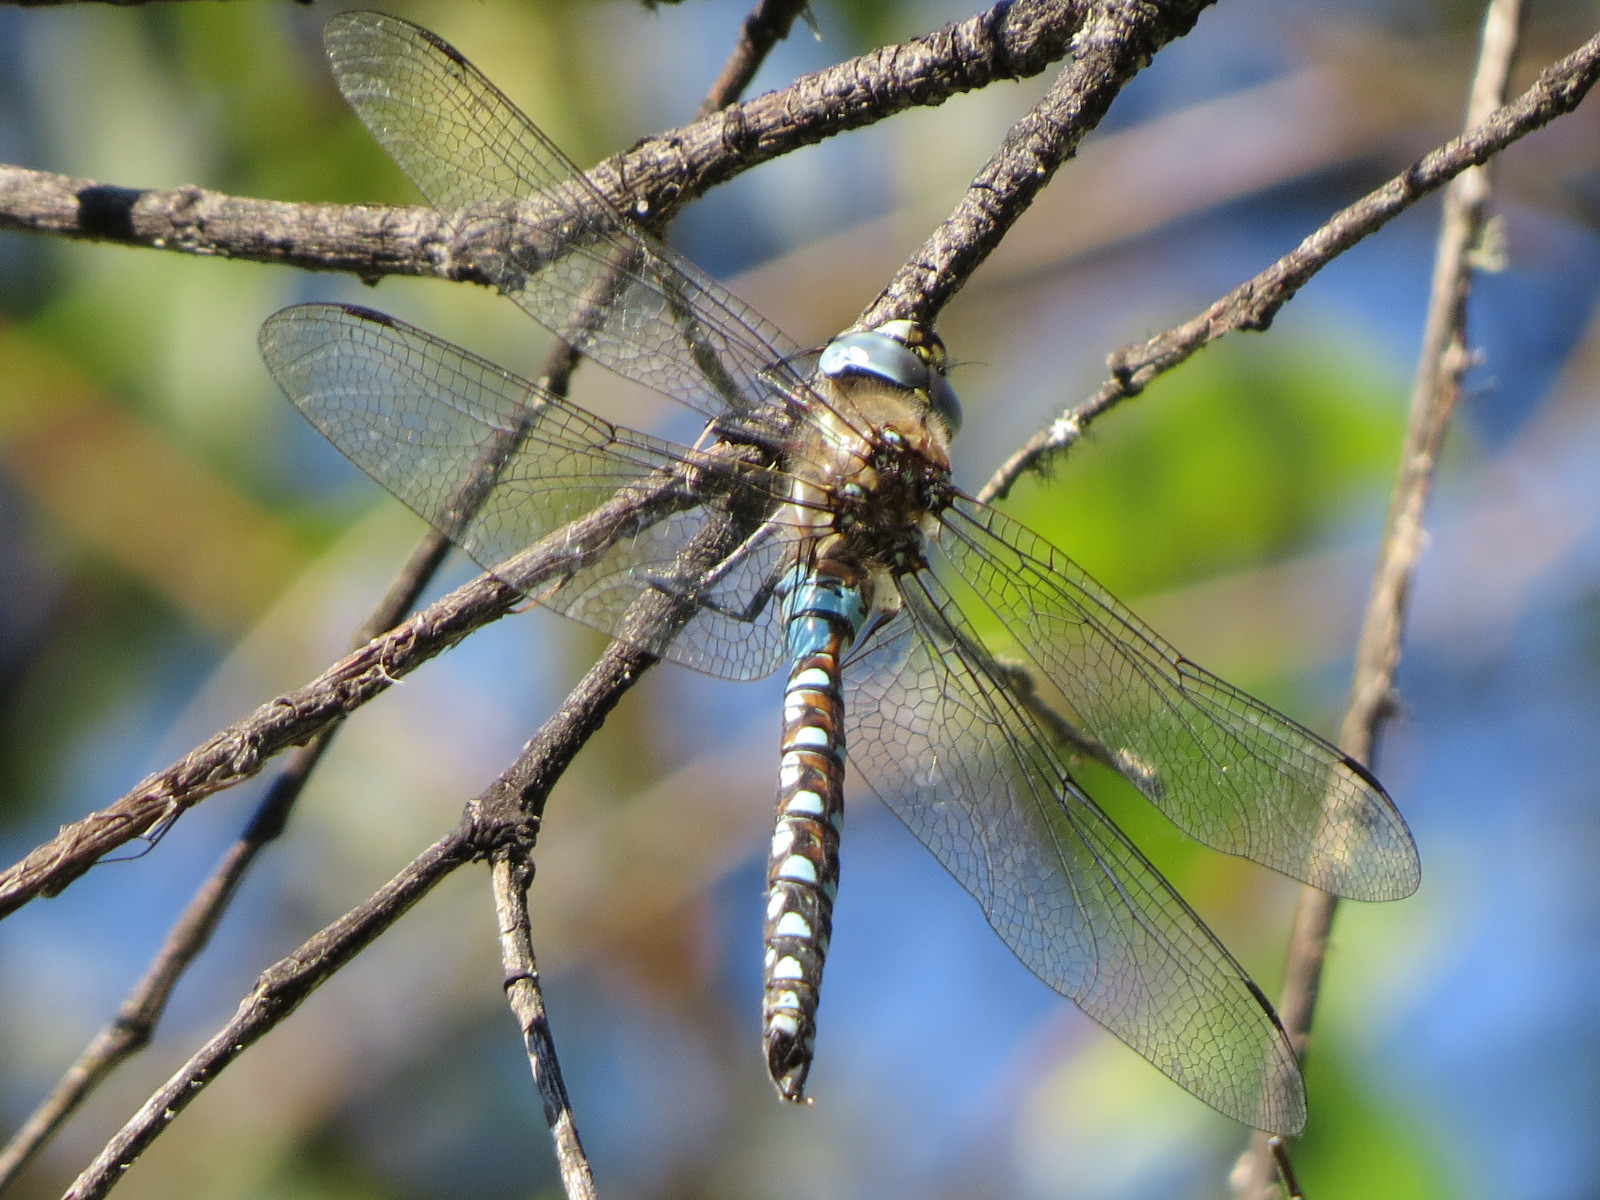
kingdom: Animalia
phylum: Arthropoda
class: Insecta
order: Odonata
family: Aeshnidae
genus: Rhionaeschna
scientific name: Rhionaeschna californica
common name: California darner
